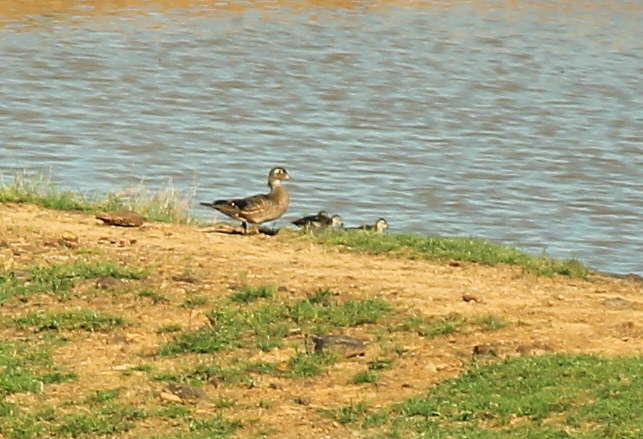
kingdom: Animalia
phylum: Chordata
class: Aves
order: Anseriformes
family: Anatidae
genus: Aix
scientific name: Aix sponsa
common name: Wood duck
